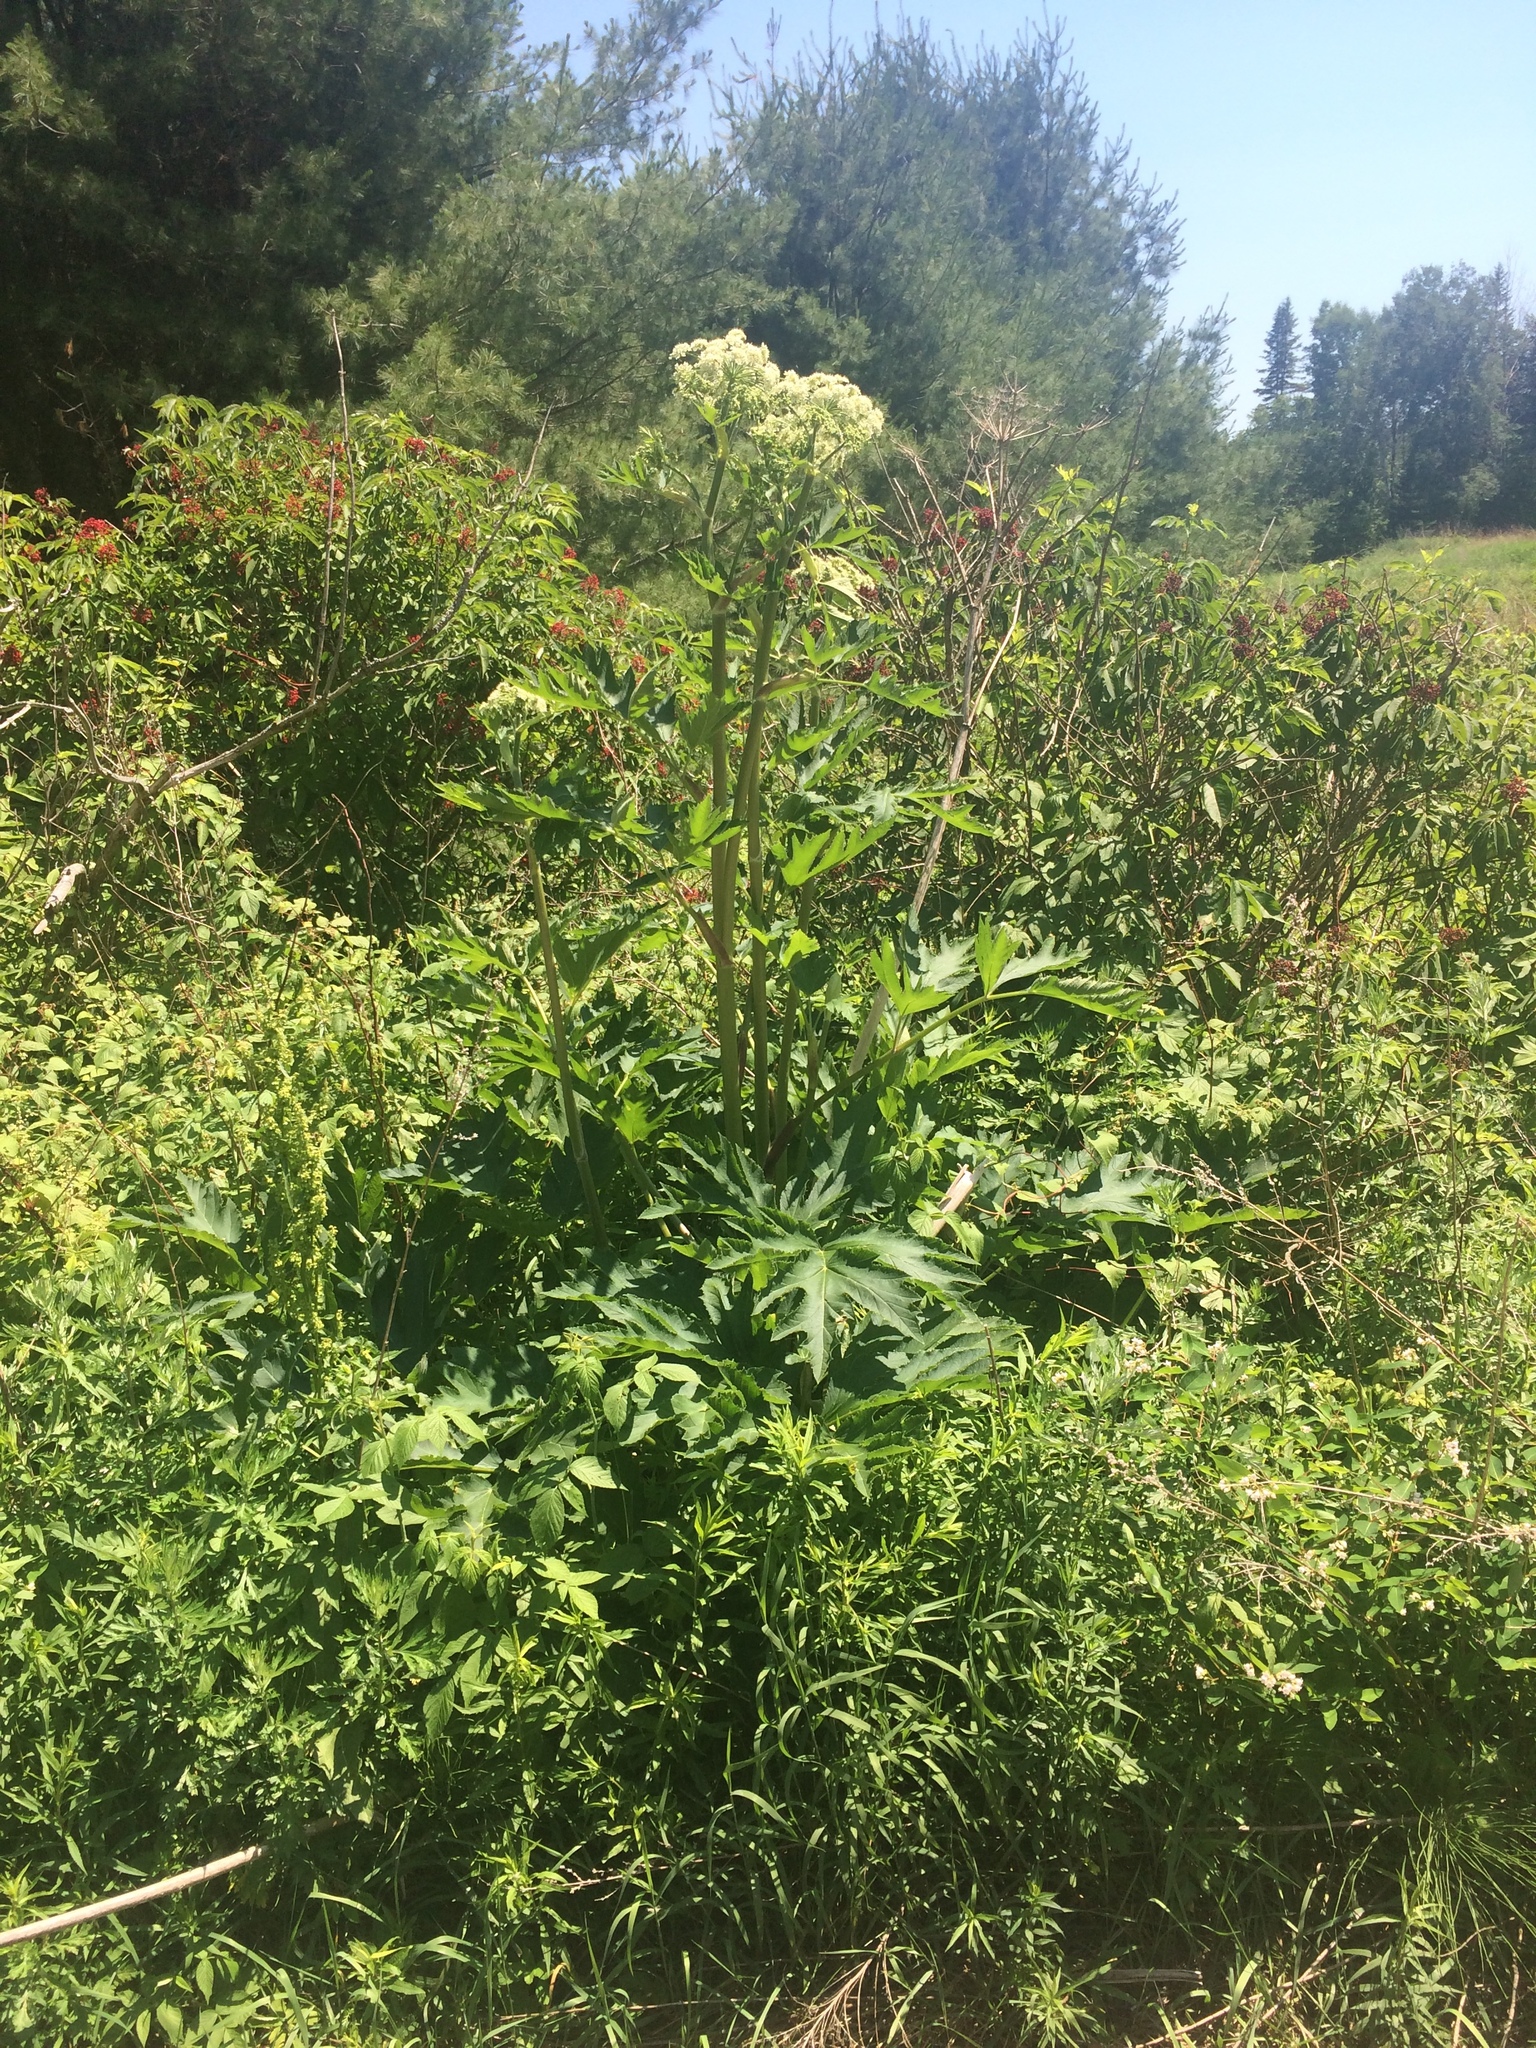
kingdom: Plantae
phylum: Tracheophyta
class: Magnoliopsida
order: Apiales
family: Apiaceae
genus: Heracleum
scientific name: Heracleum maximum
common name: American cow parsnip
